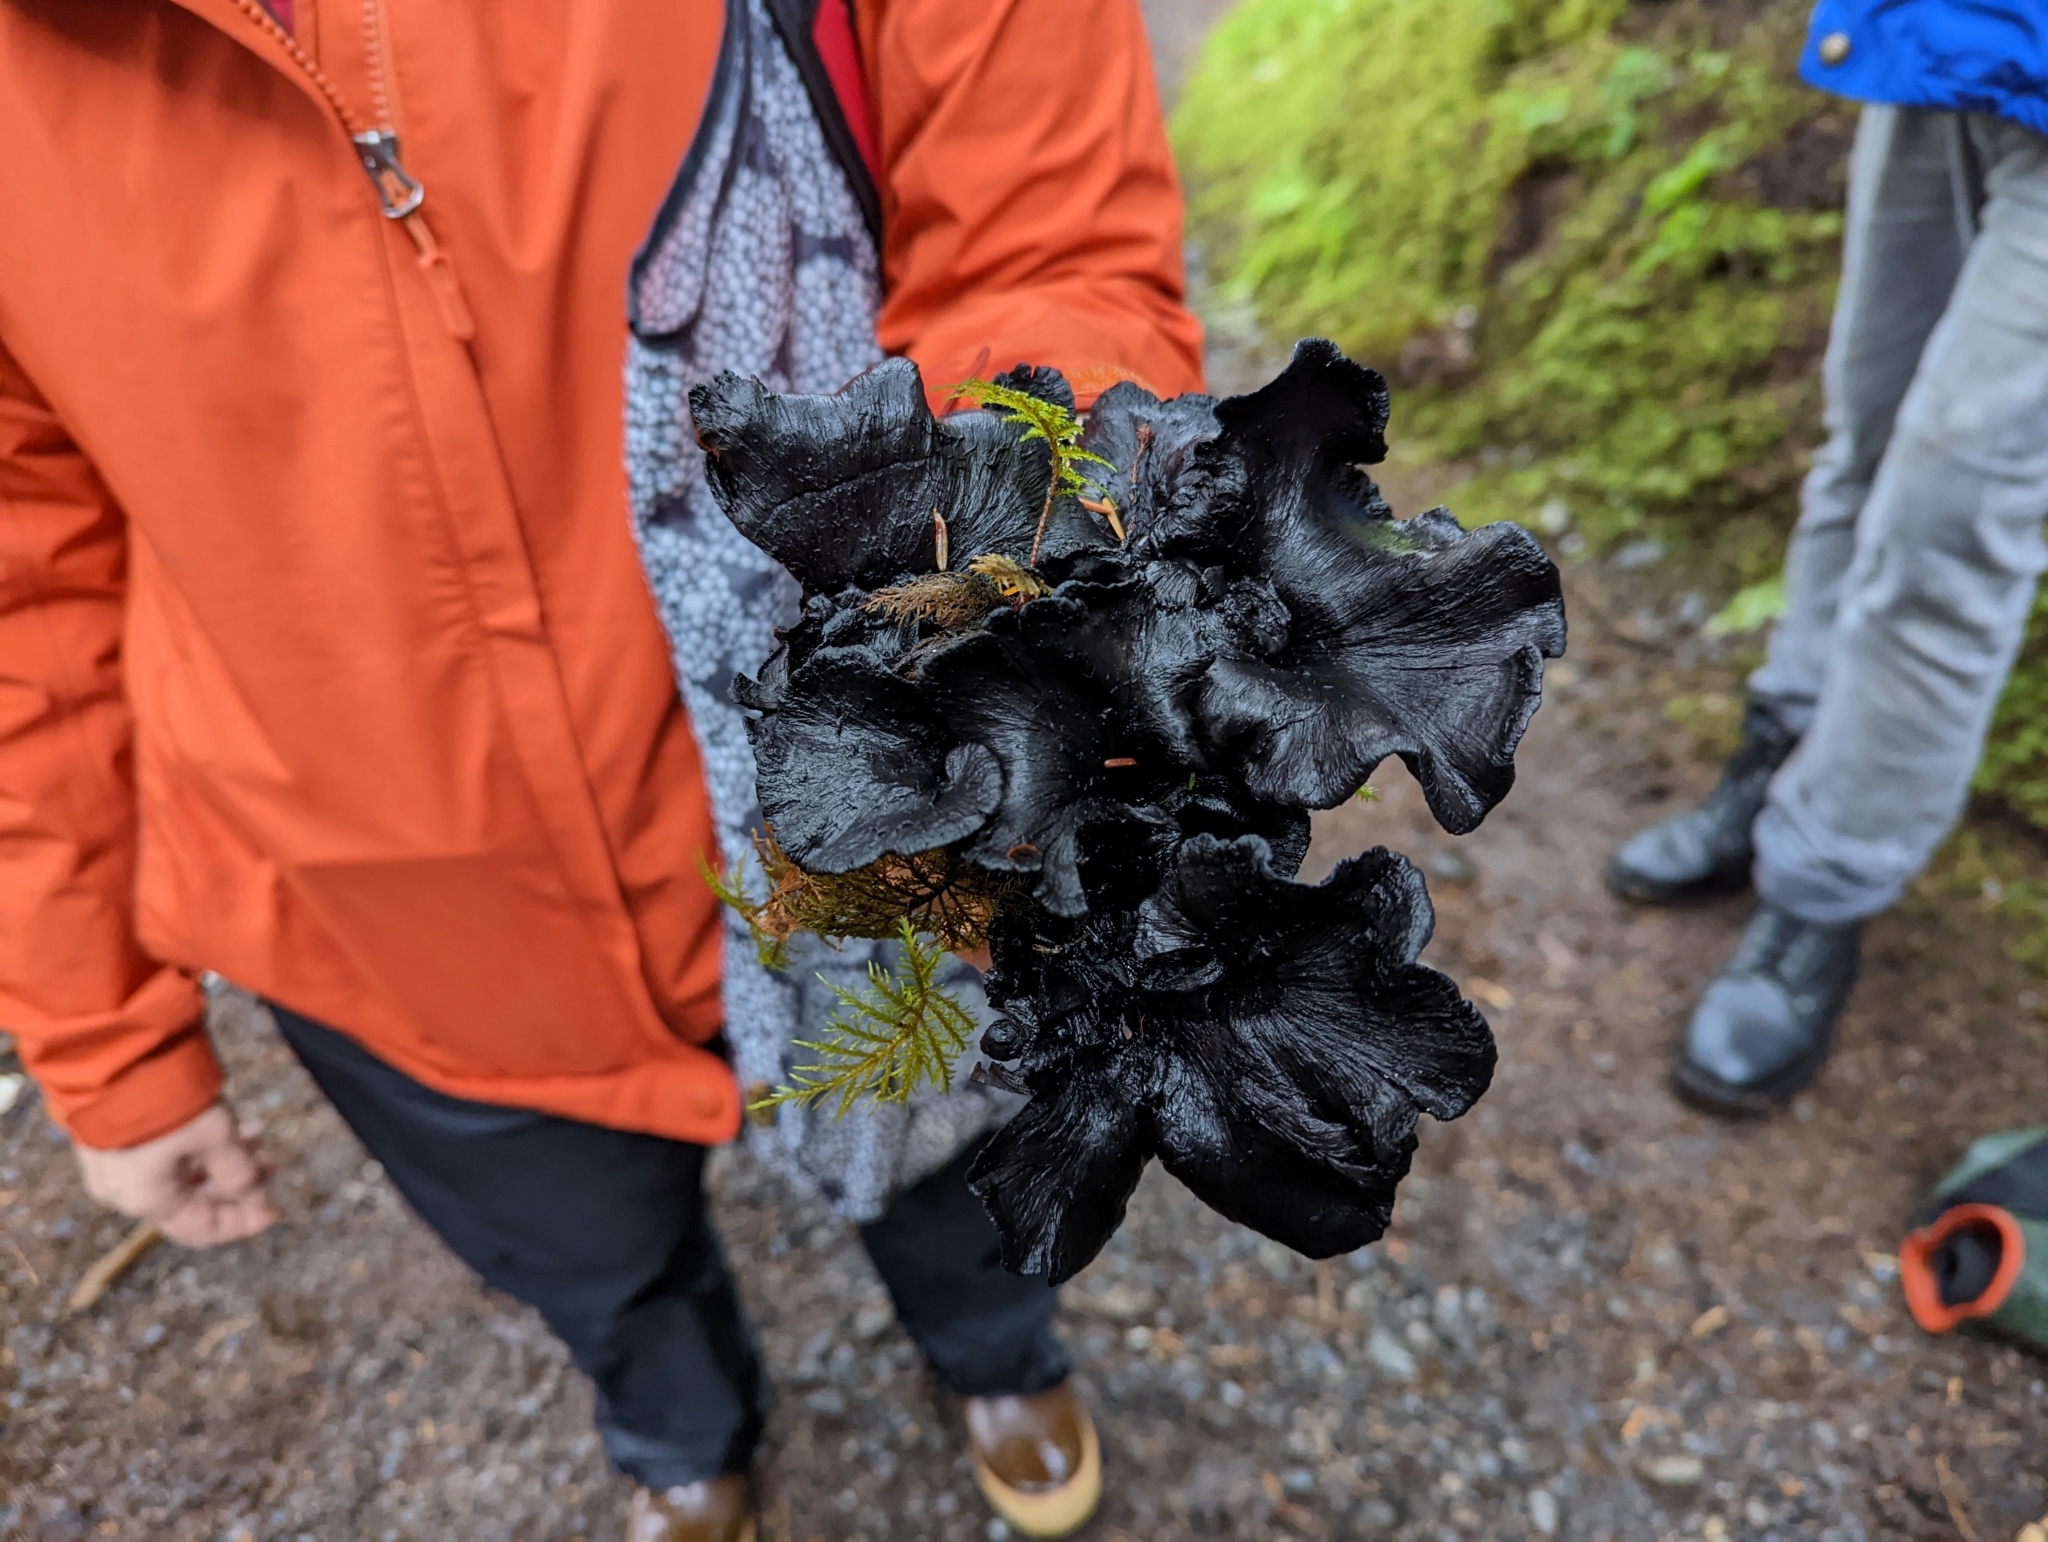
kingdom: Fungi
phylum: Basidiomycota
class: Agaricomycetes
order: Thelephorales
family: Thelephoraceae
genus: Polyozellus
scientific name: Polyozellus purpureoniger
